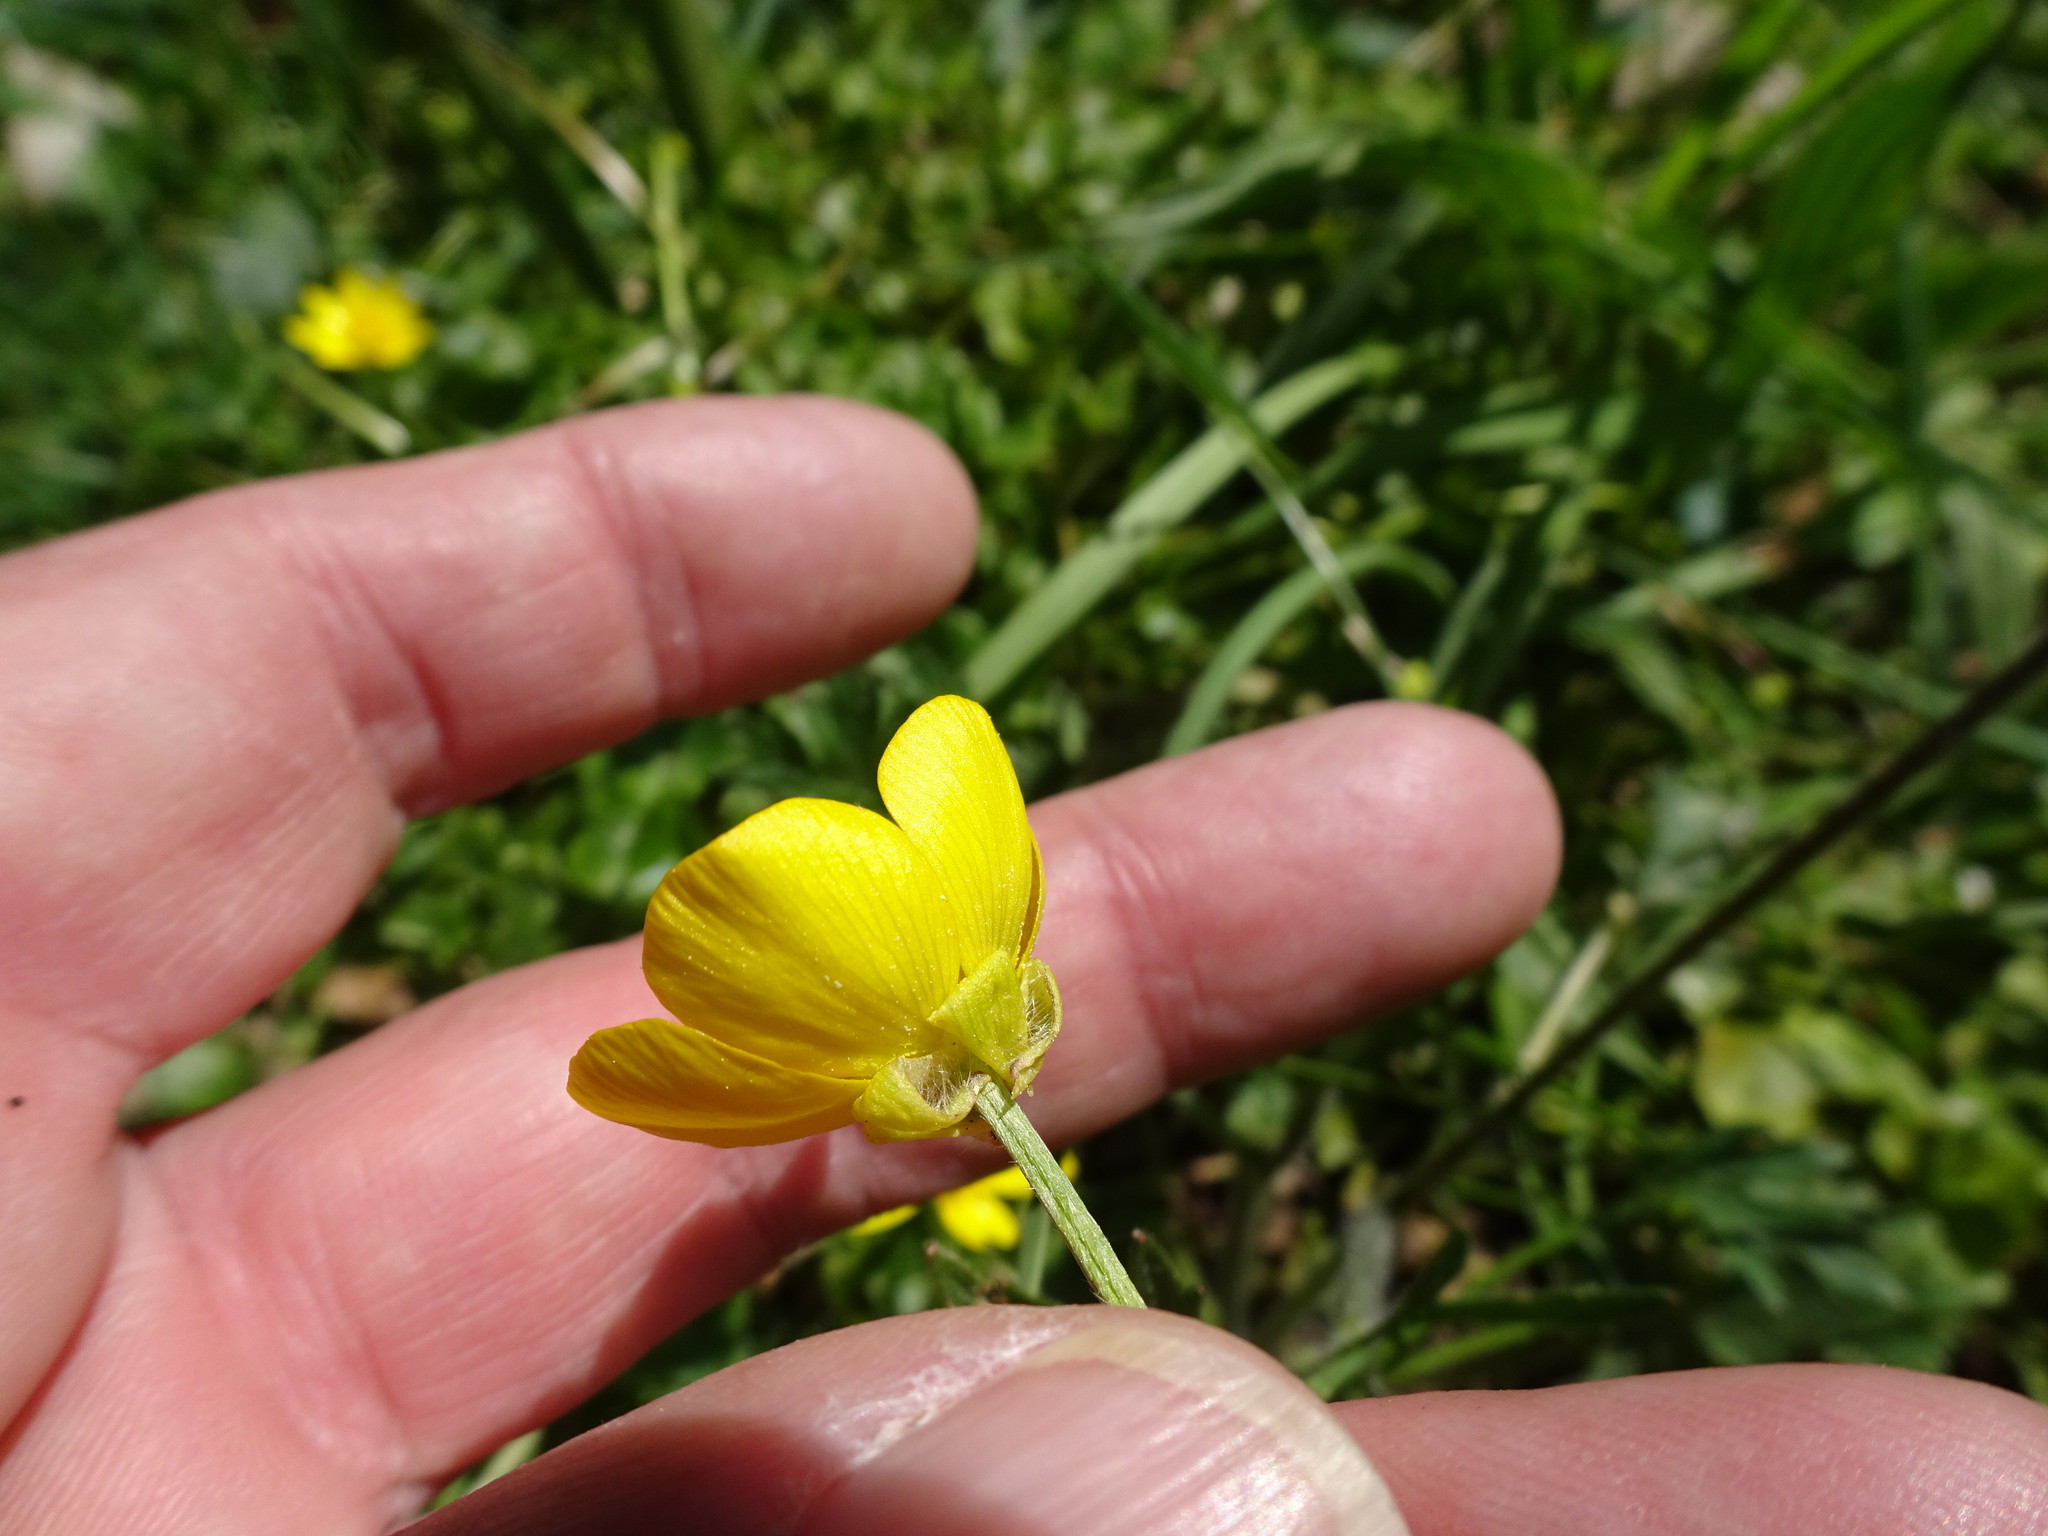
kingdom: Plantae
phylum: Tracheophyta
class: Magnoliopsida
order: Ranunculales
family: Ranunculaceae
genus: Ranunculus
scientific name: Ranunculus bulbosus
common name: Bulbous buttercup
